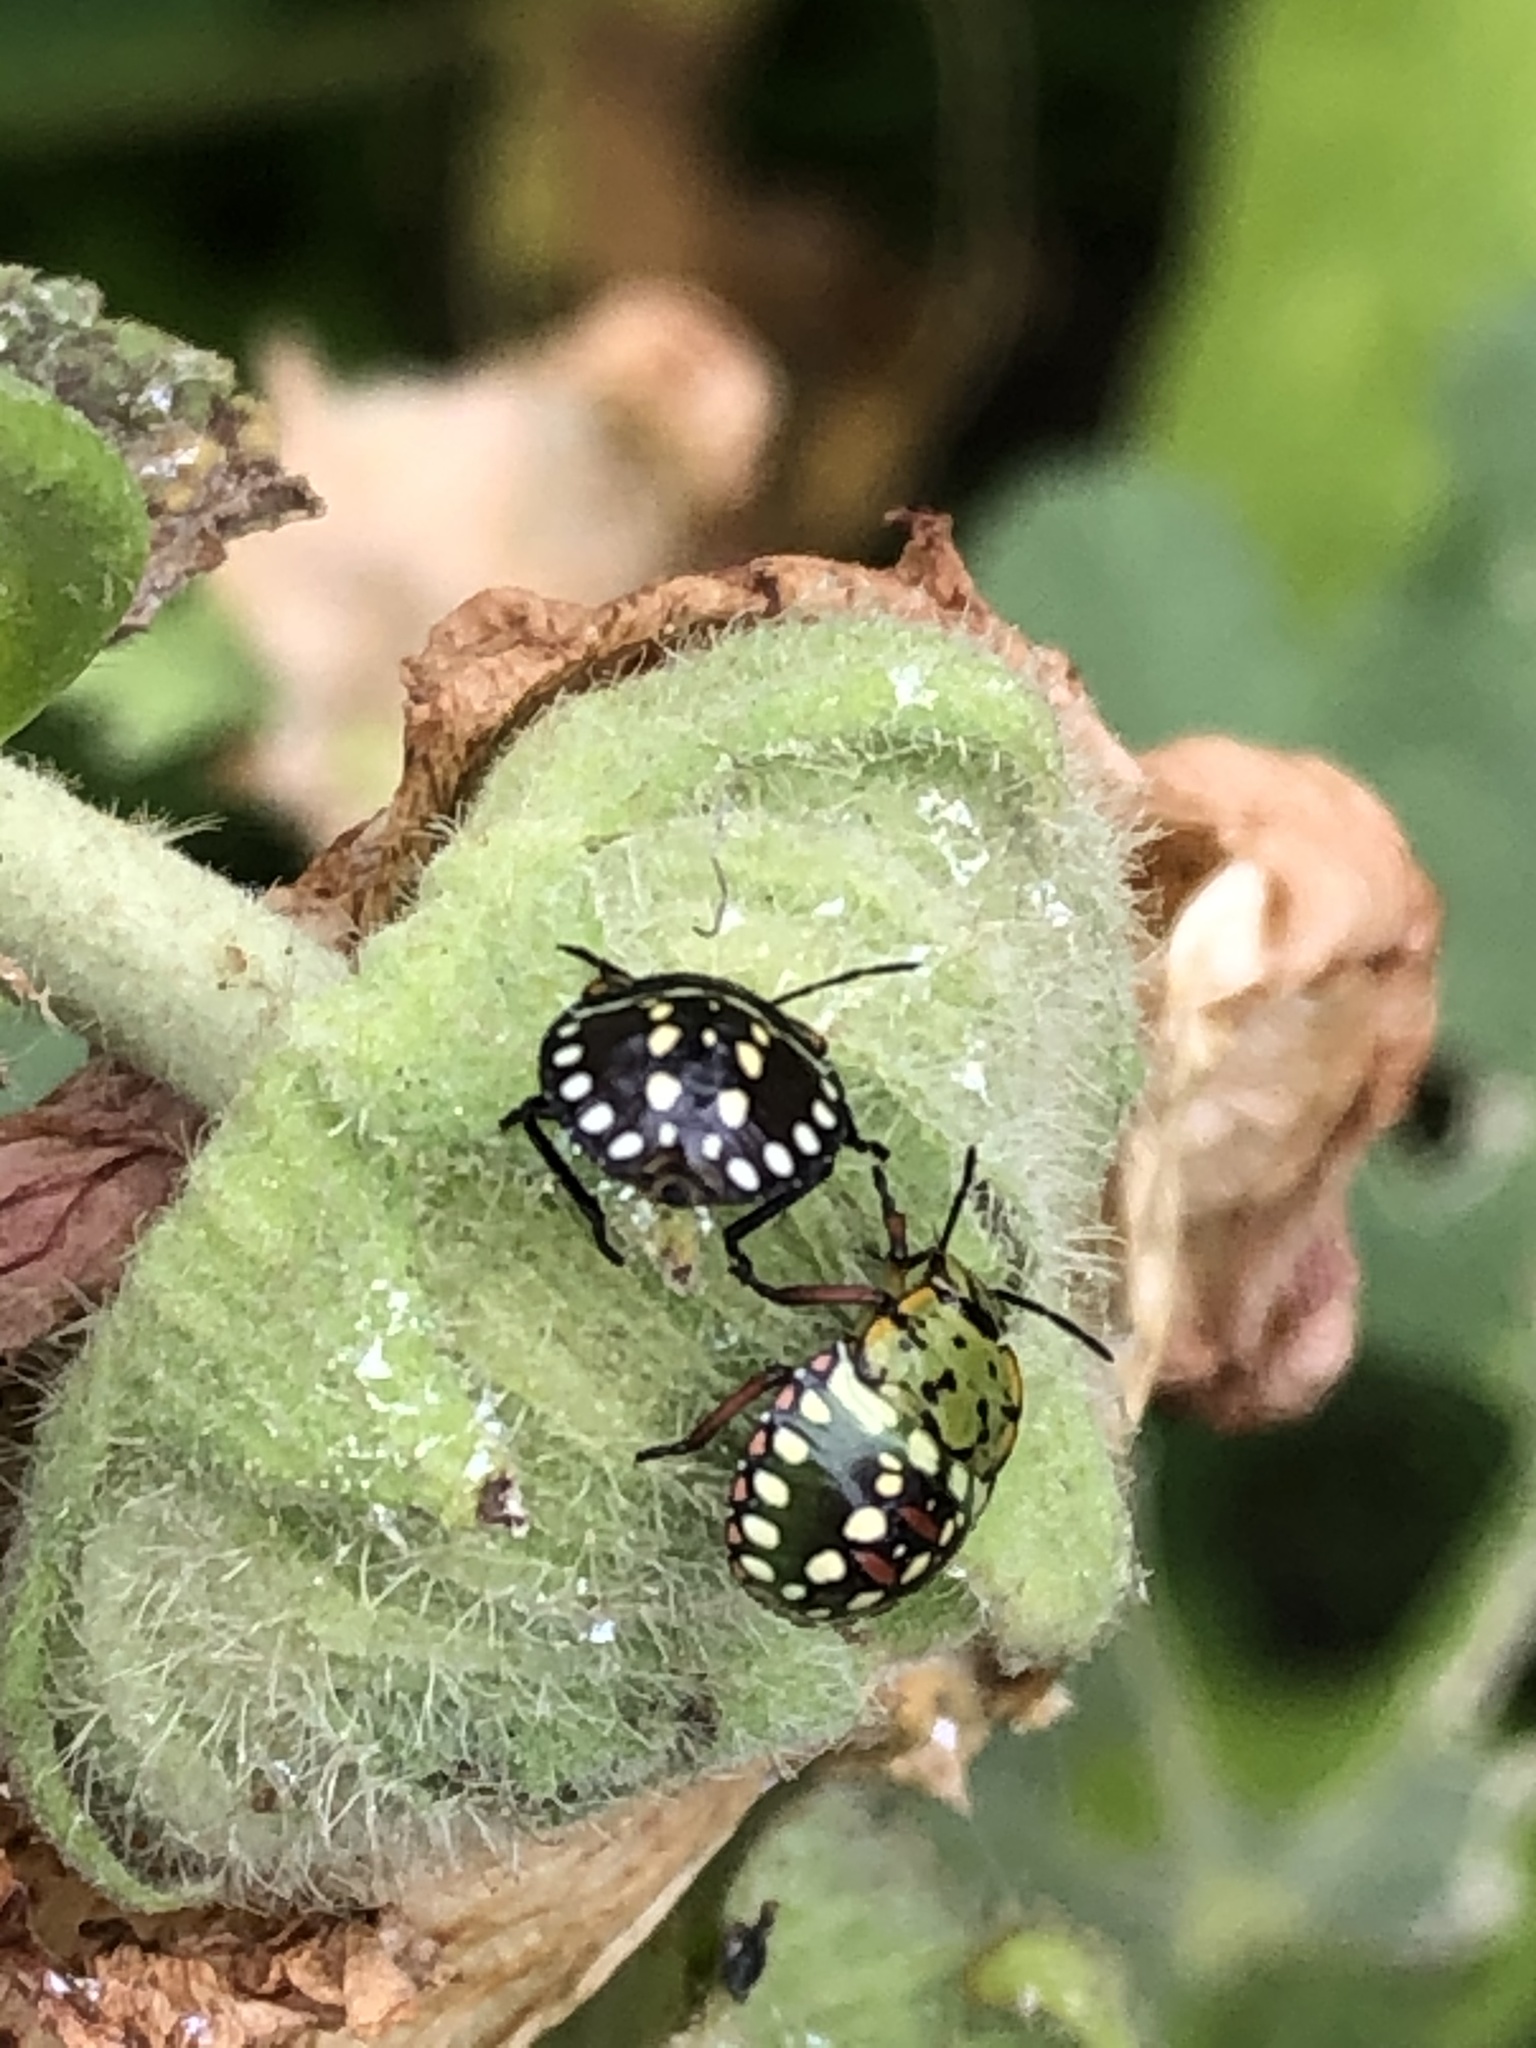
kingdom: Animalia
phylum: Arthropoda
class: Insecta
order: Hemiptera
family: Pentatomidae
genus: Nezara
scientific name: Nezara viridula
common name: Southern green stink bug
